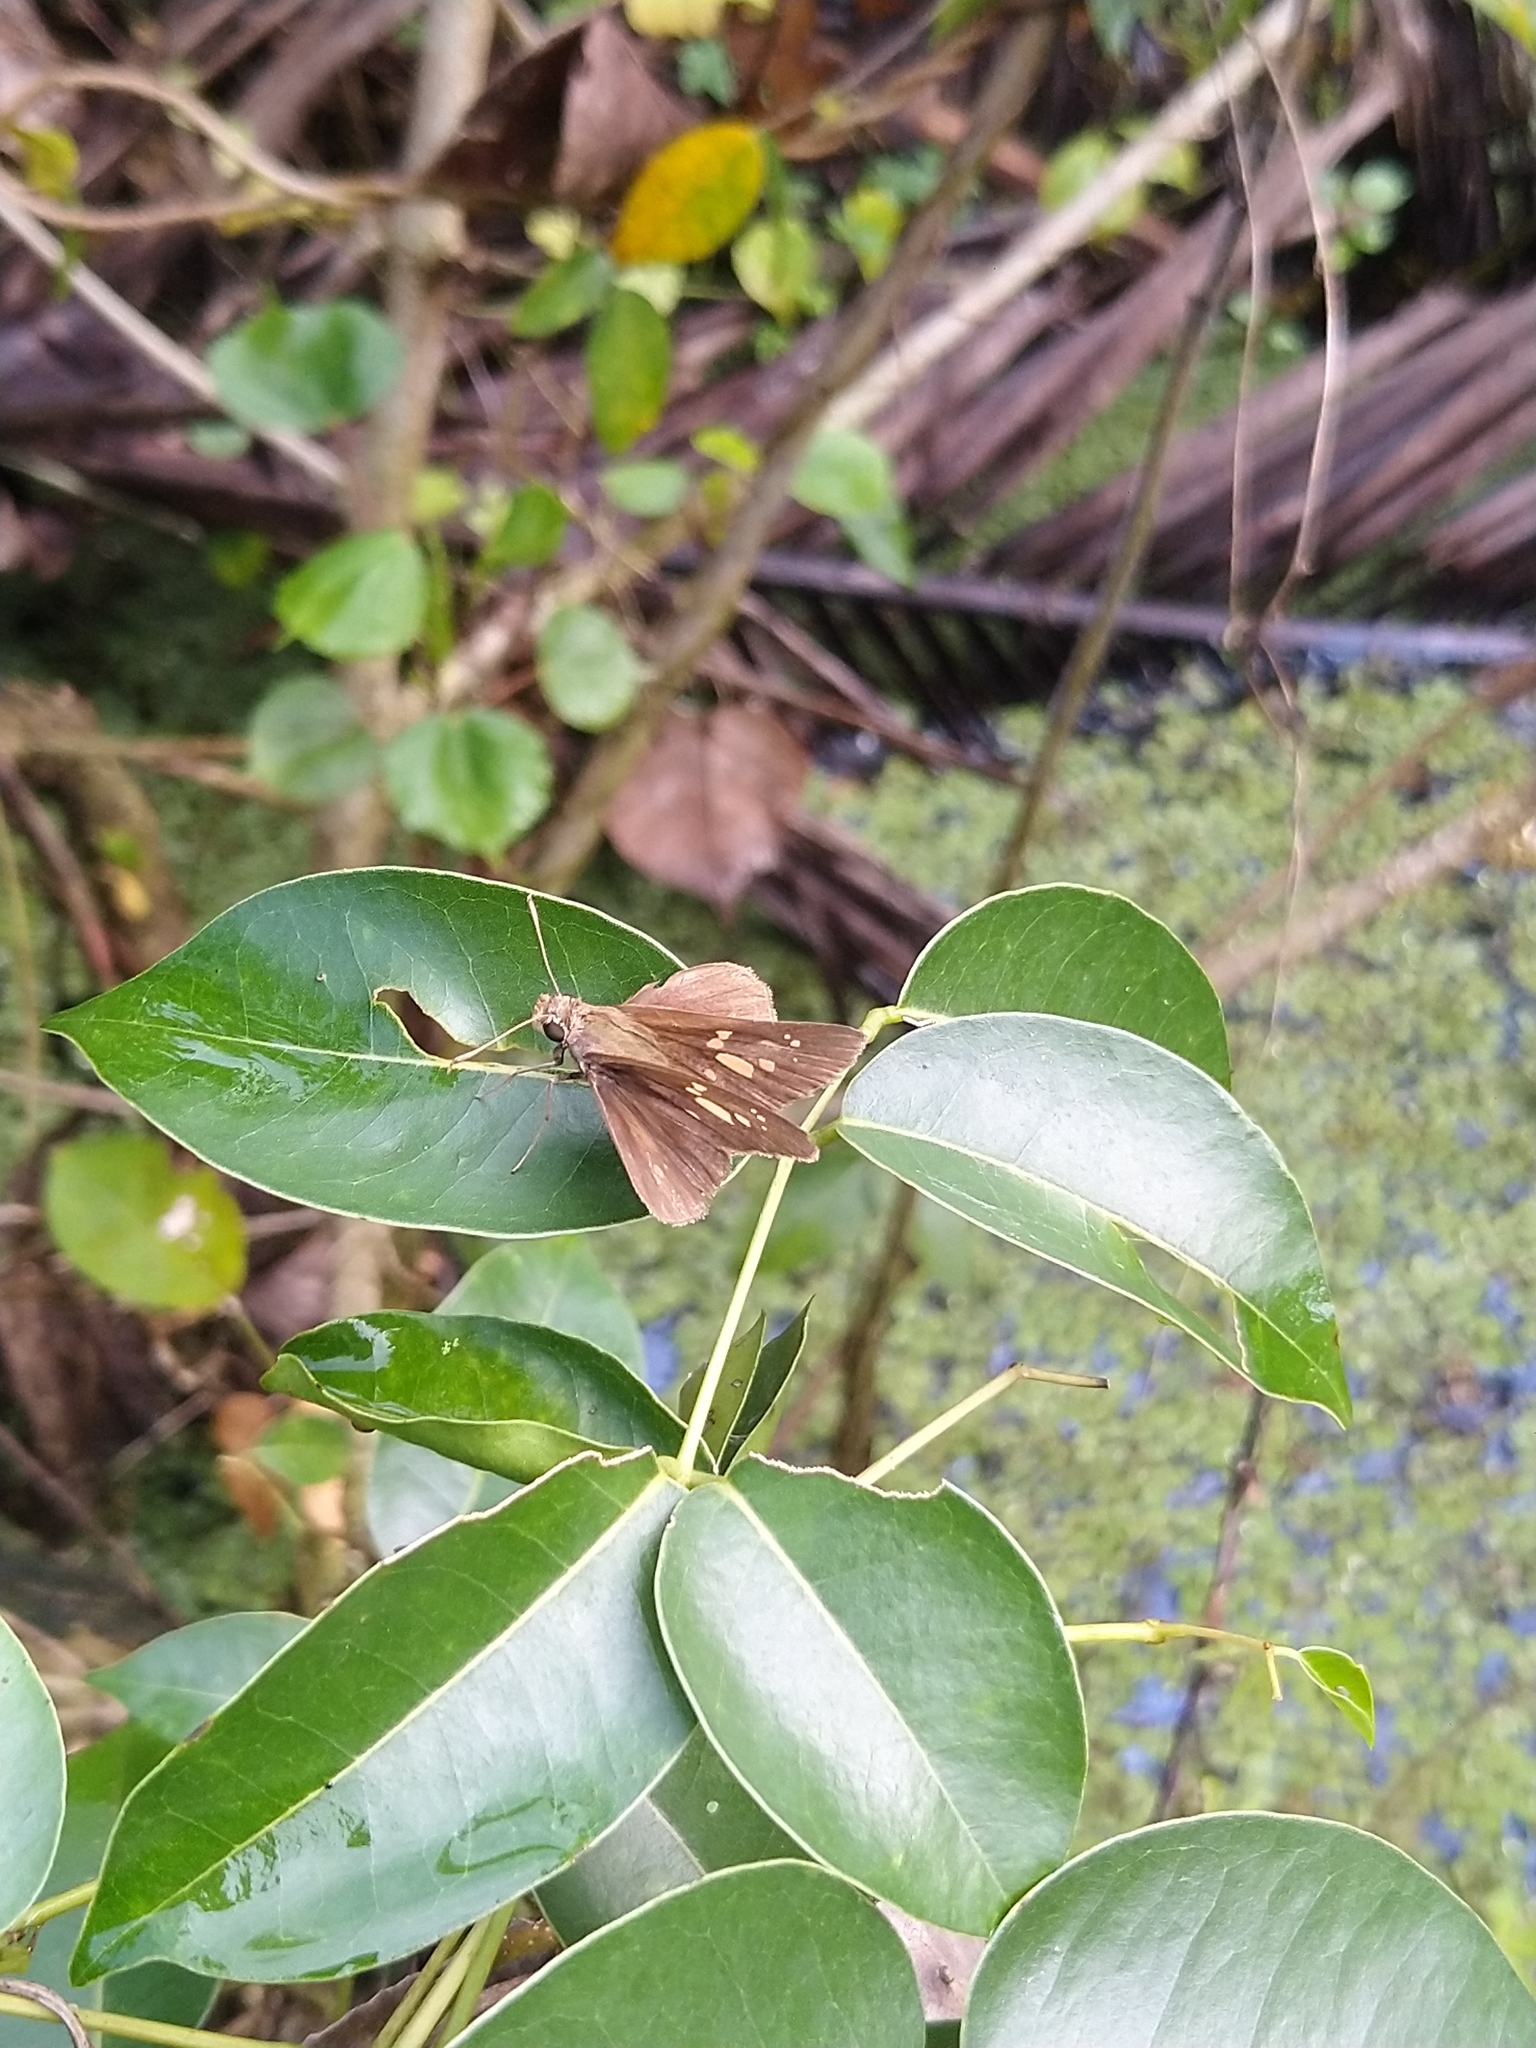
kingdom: Animalia
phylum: Arthropoda
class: Insecta
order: Lepidoptera
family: Hesperiidae
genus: Polytremis
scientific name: Polytremis lubricans
